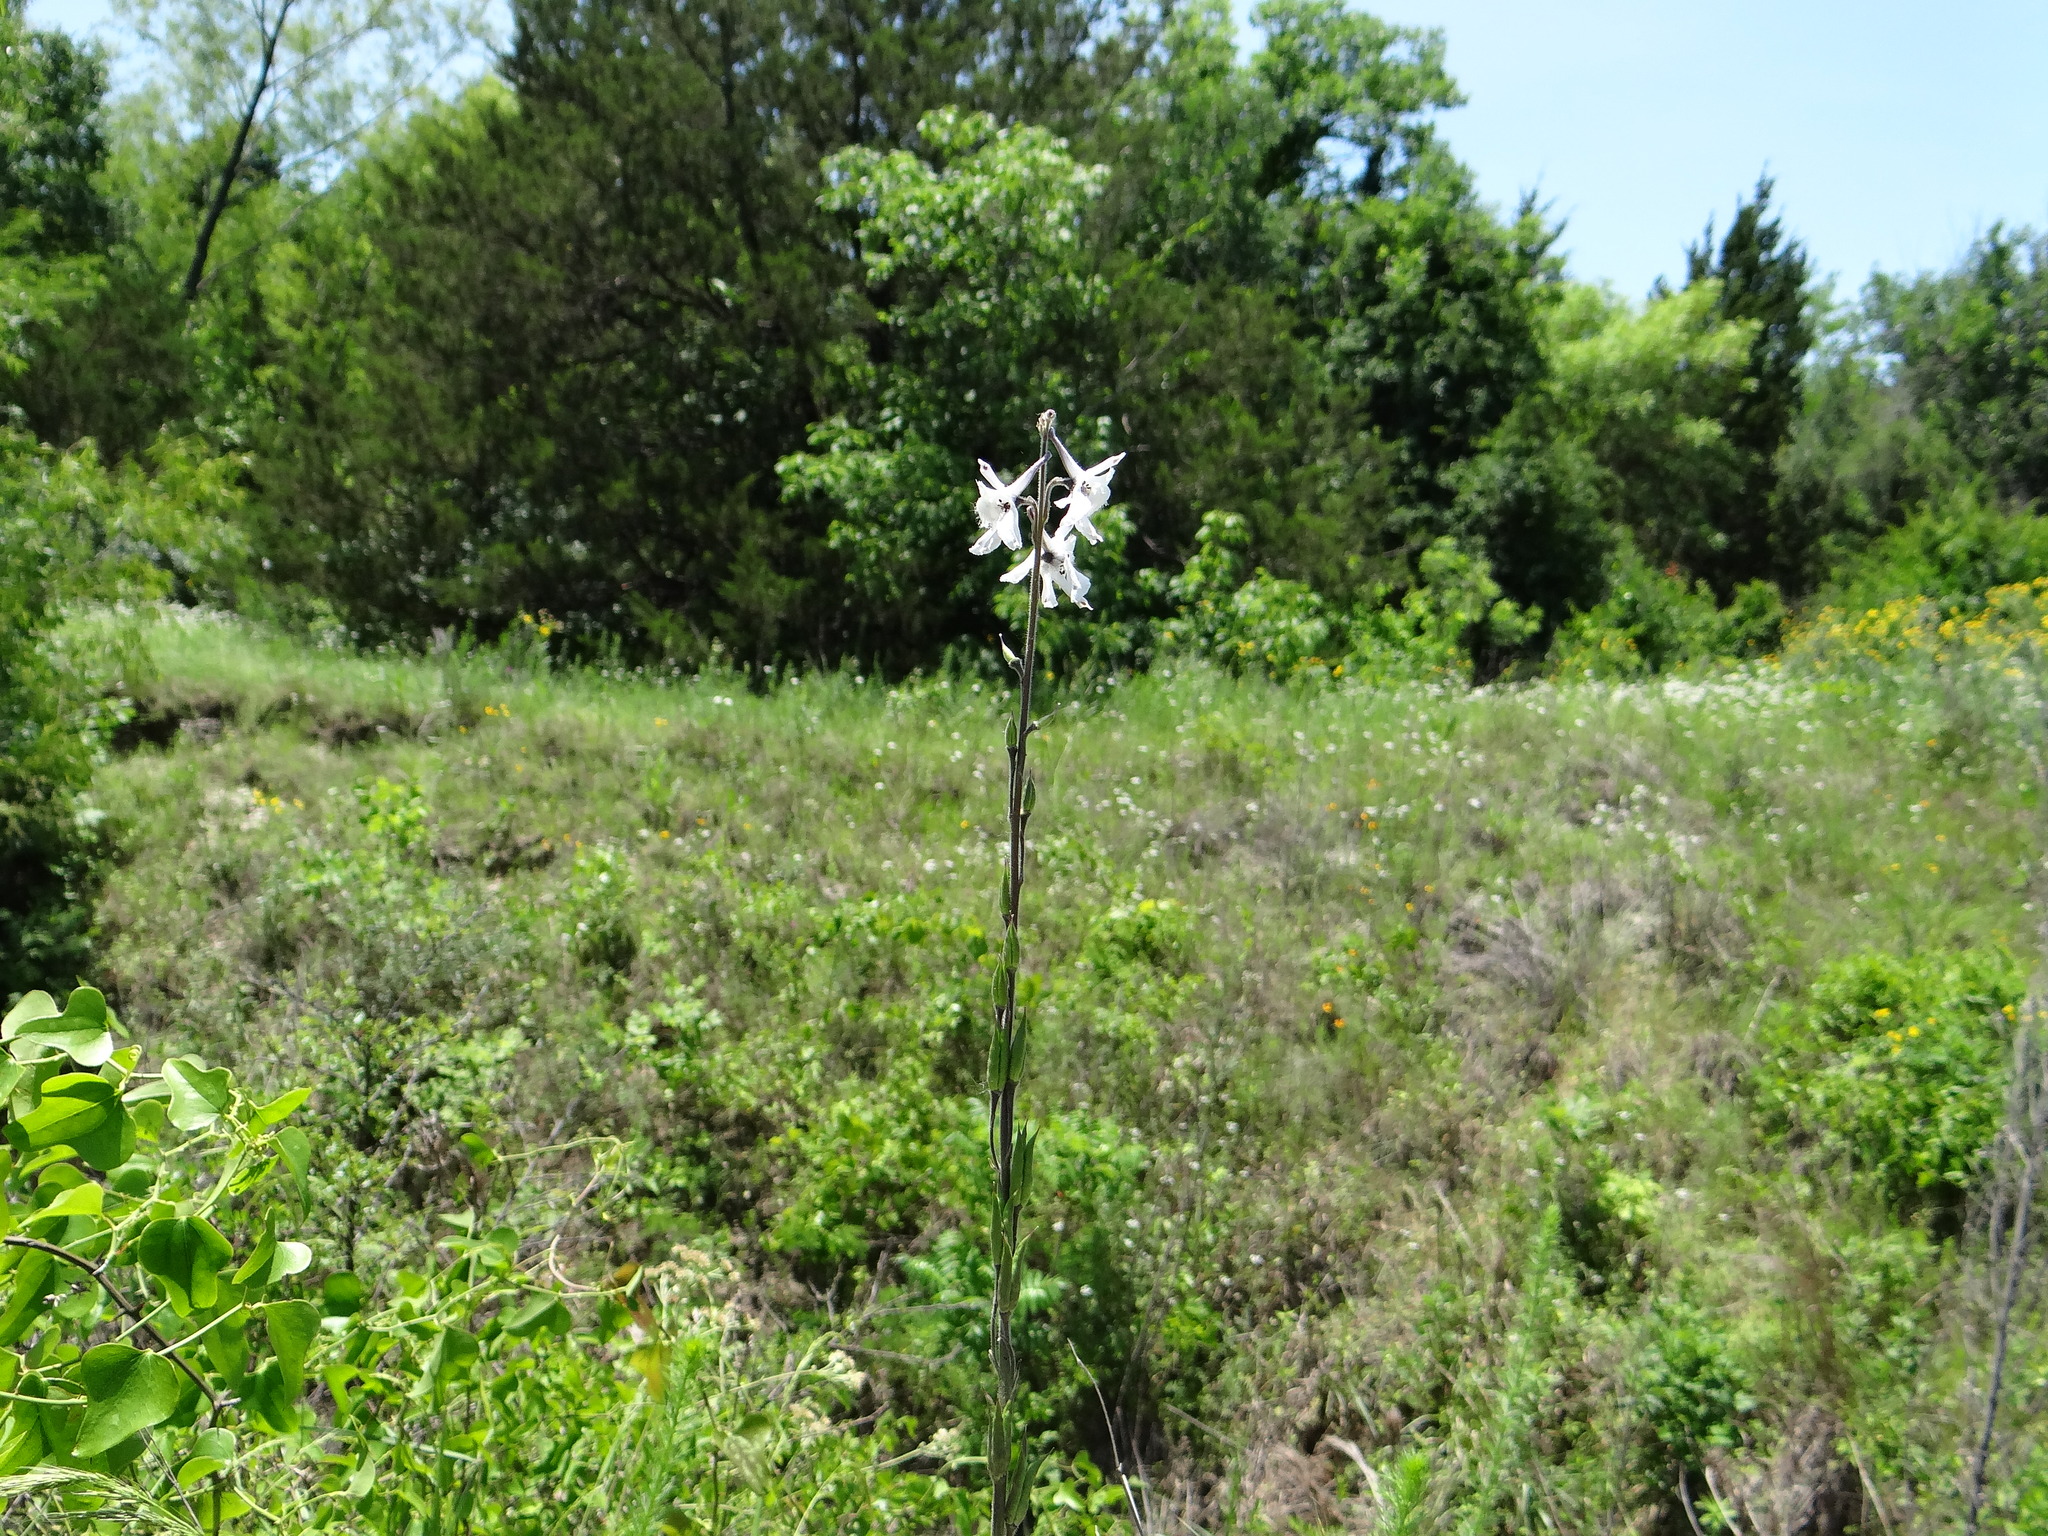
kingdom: Plantae
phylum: Tracheophyta
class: Magnoliopsida
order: Ranunculales
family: Ranunculaceae
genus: Delphinium
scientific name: Delphinium carolinianum
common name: Carolina larkspur
